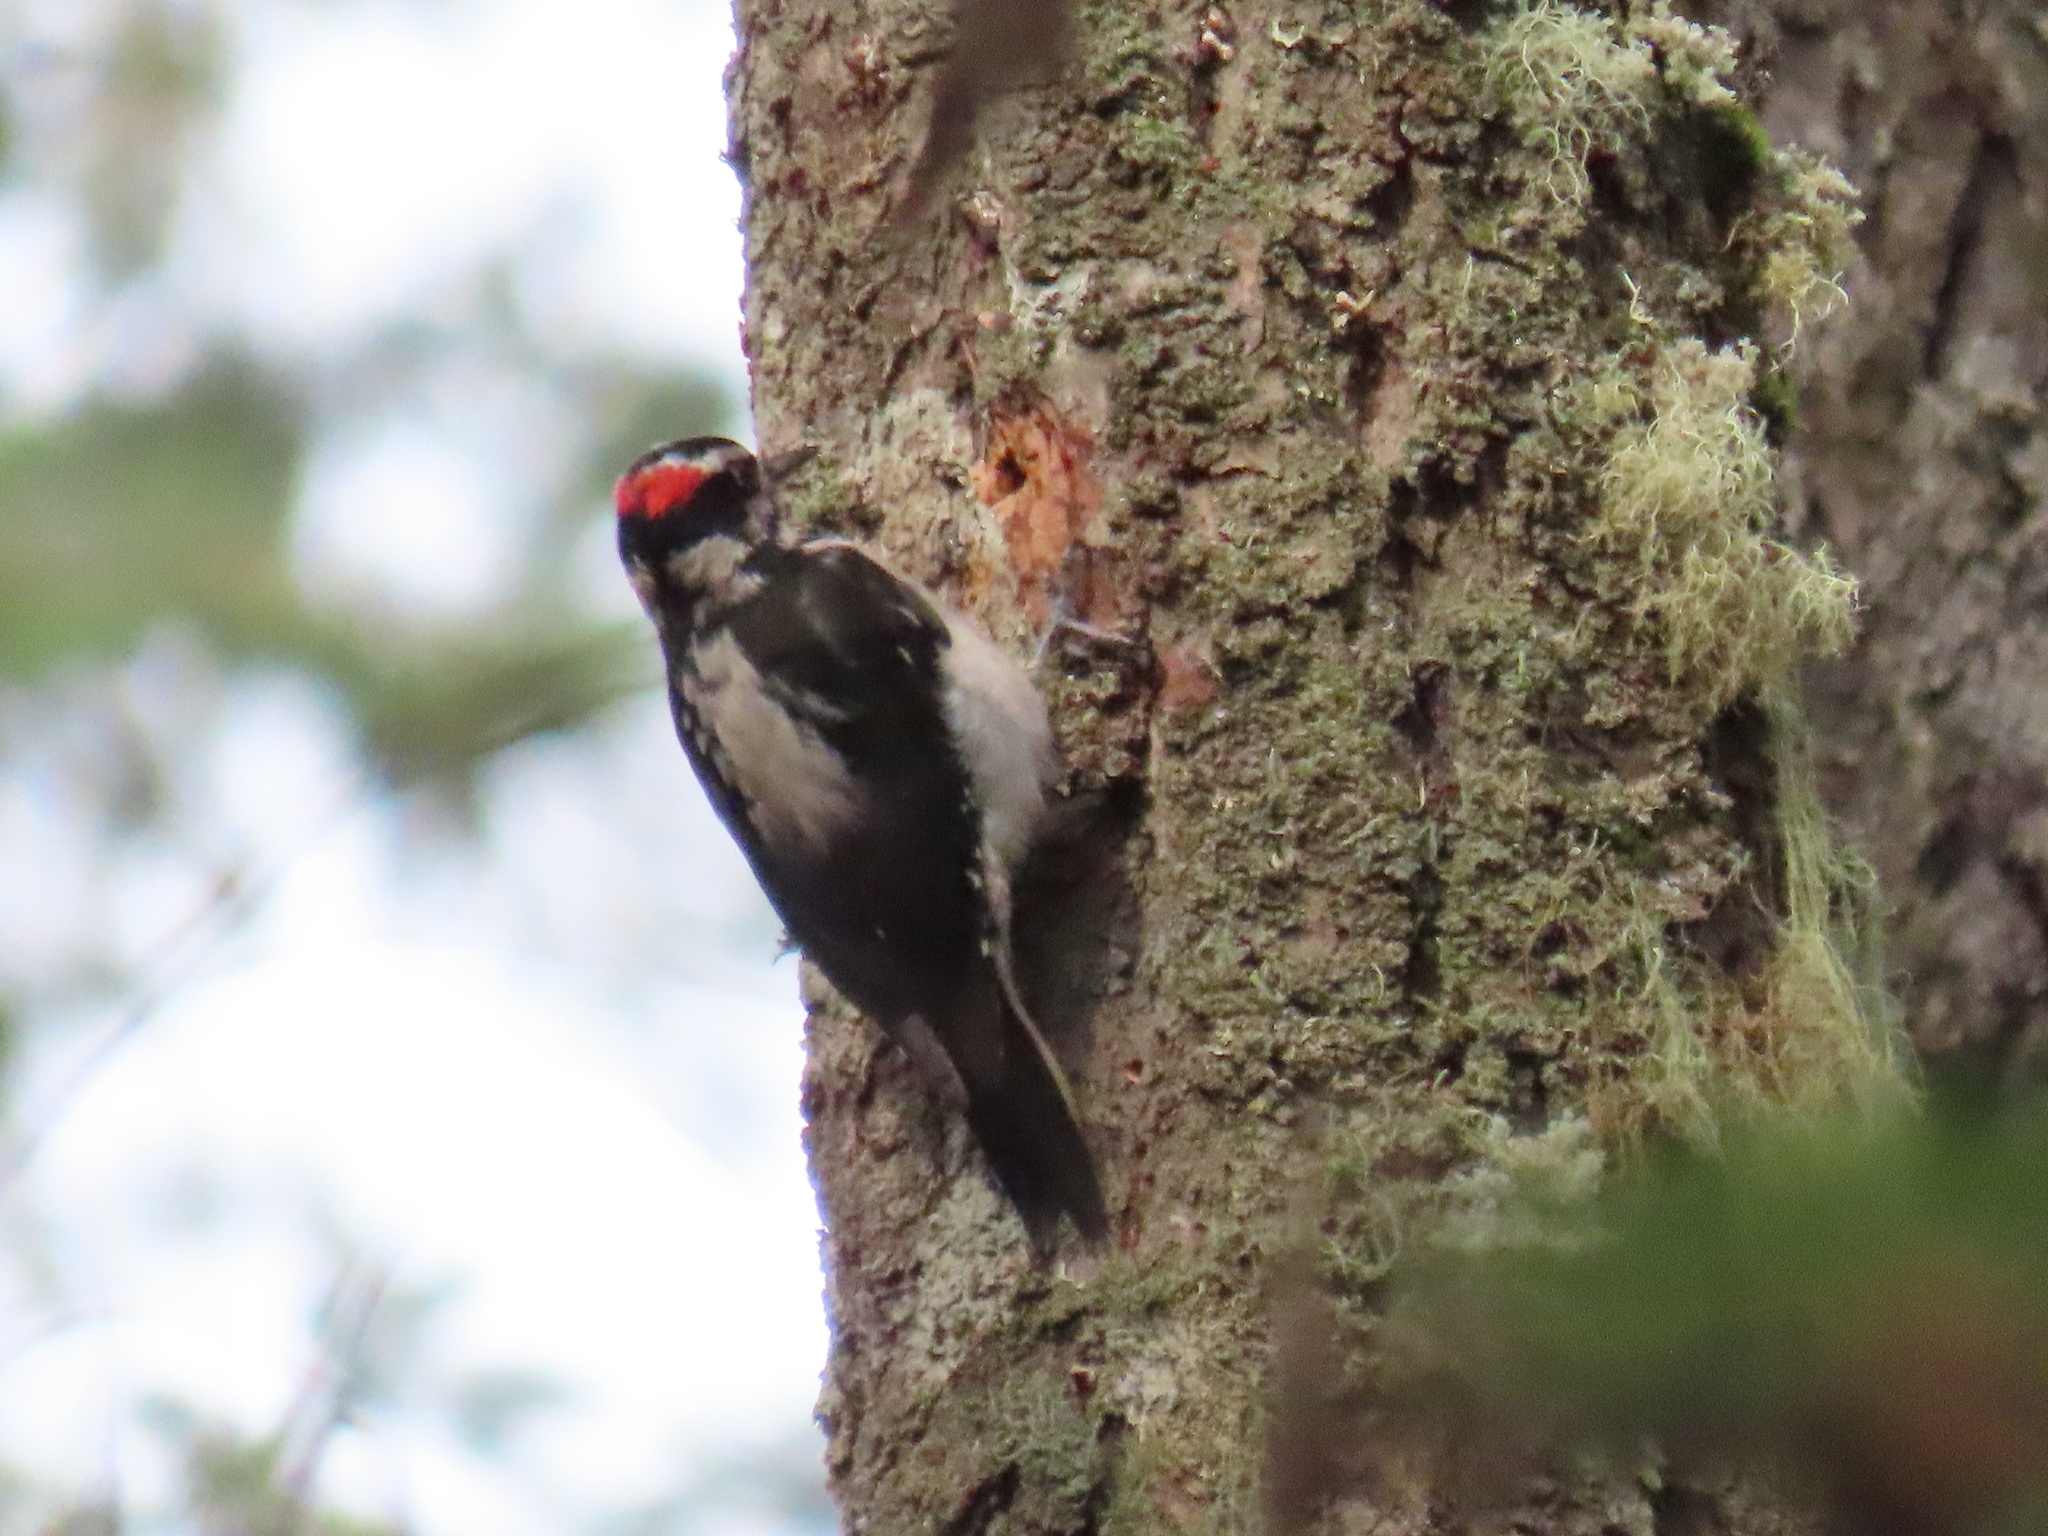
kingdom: Animalia
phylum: Chordata
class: Aves
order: Piciformes
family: Picidae
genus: Leuconotopicus
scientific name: Leuconotopicus villosus
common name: Hairy woodpecker
